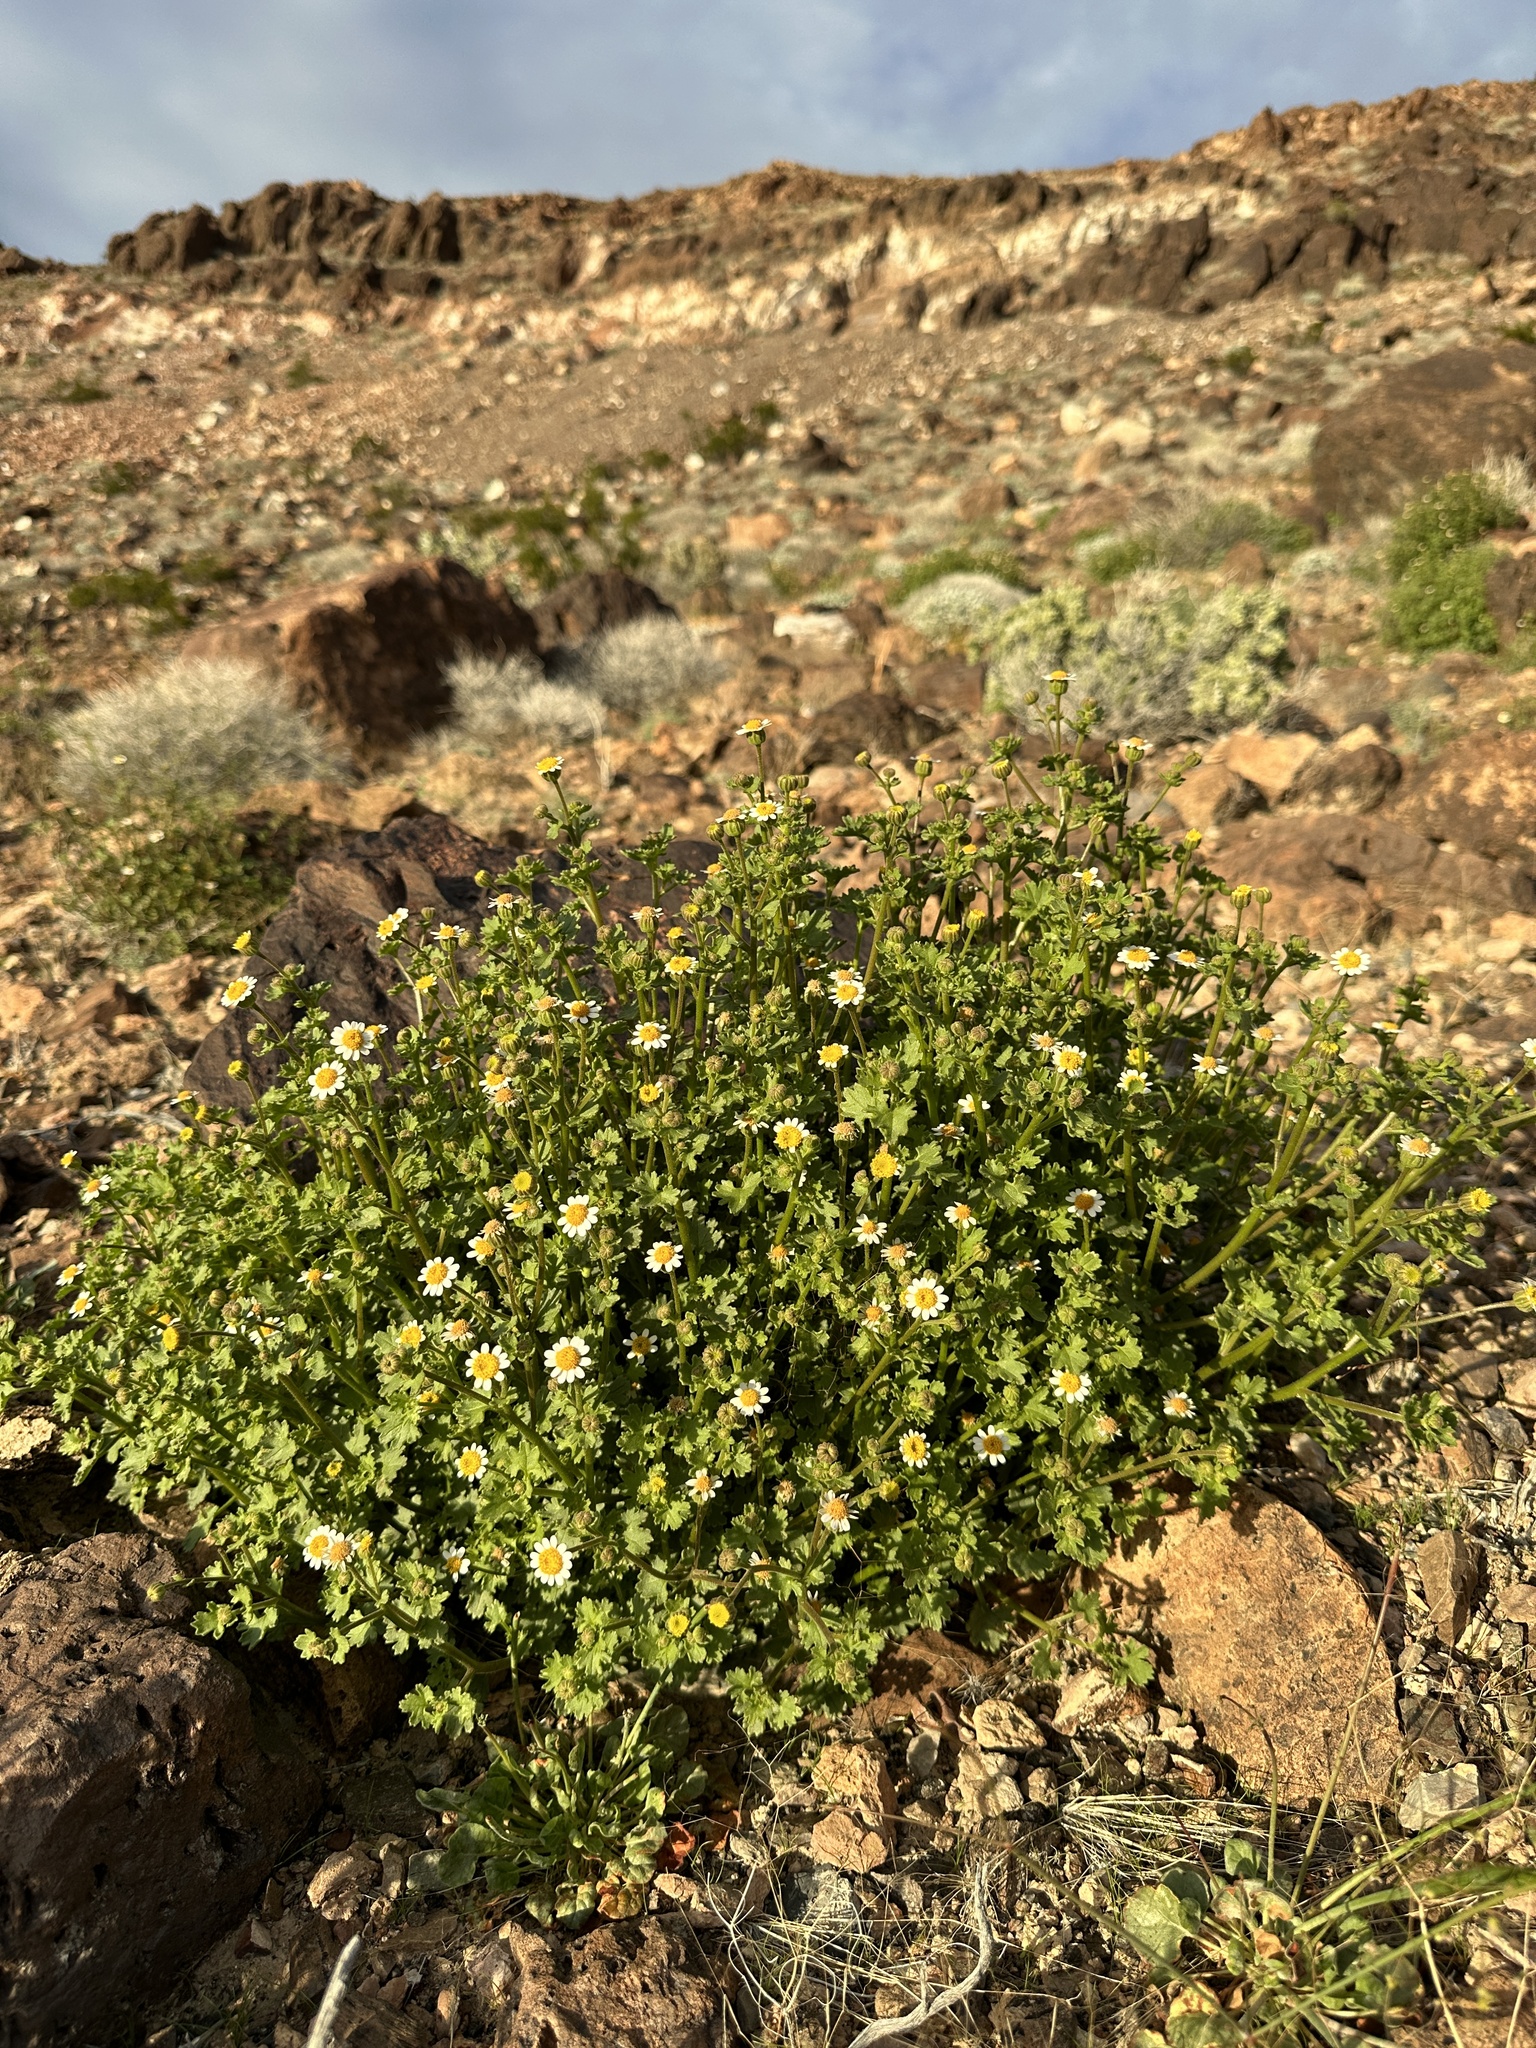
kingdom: Plantae
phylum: Tracheophyta
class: Magnoliopsida
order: Asterales
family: Asteraceae
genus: Laphamia
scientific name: Laphamia emoryi
